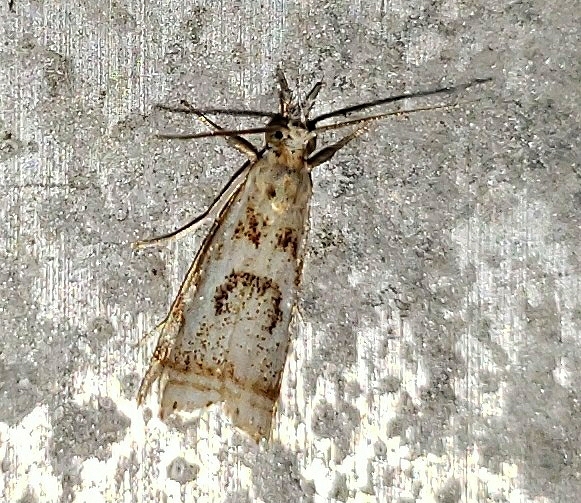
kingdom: Animalia
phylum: Arthropoda
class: Insecta
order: Lepidoptera
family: Crambidae
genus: Microcrambus
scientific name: Microcrambus elegans
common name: Elegant grass-veneer
